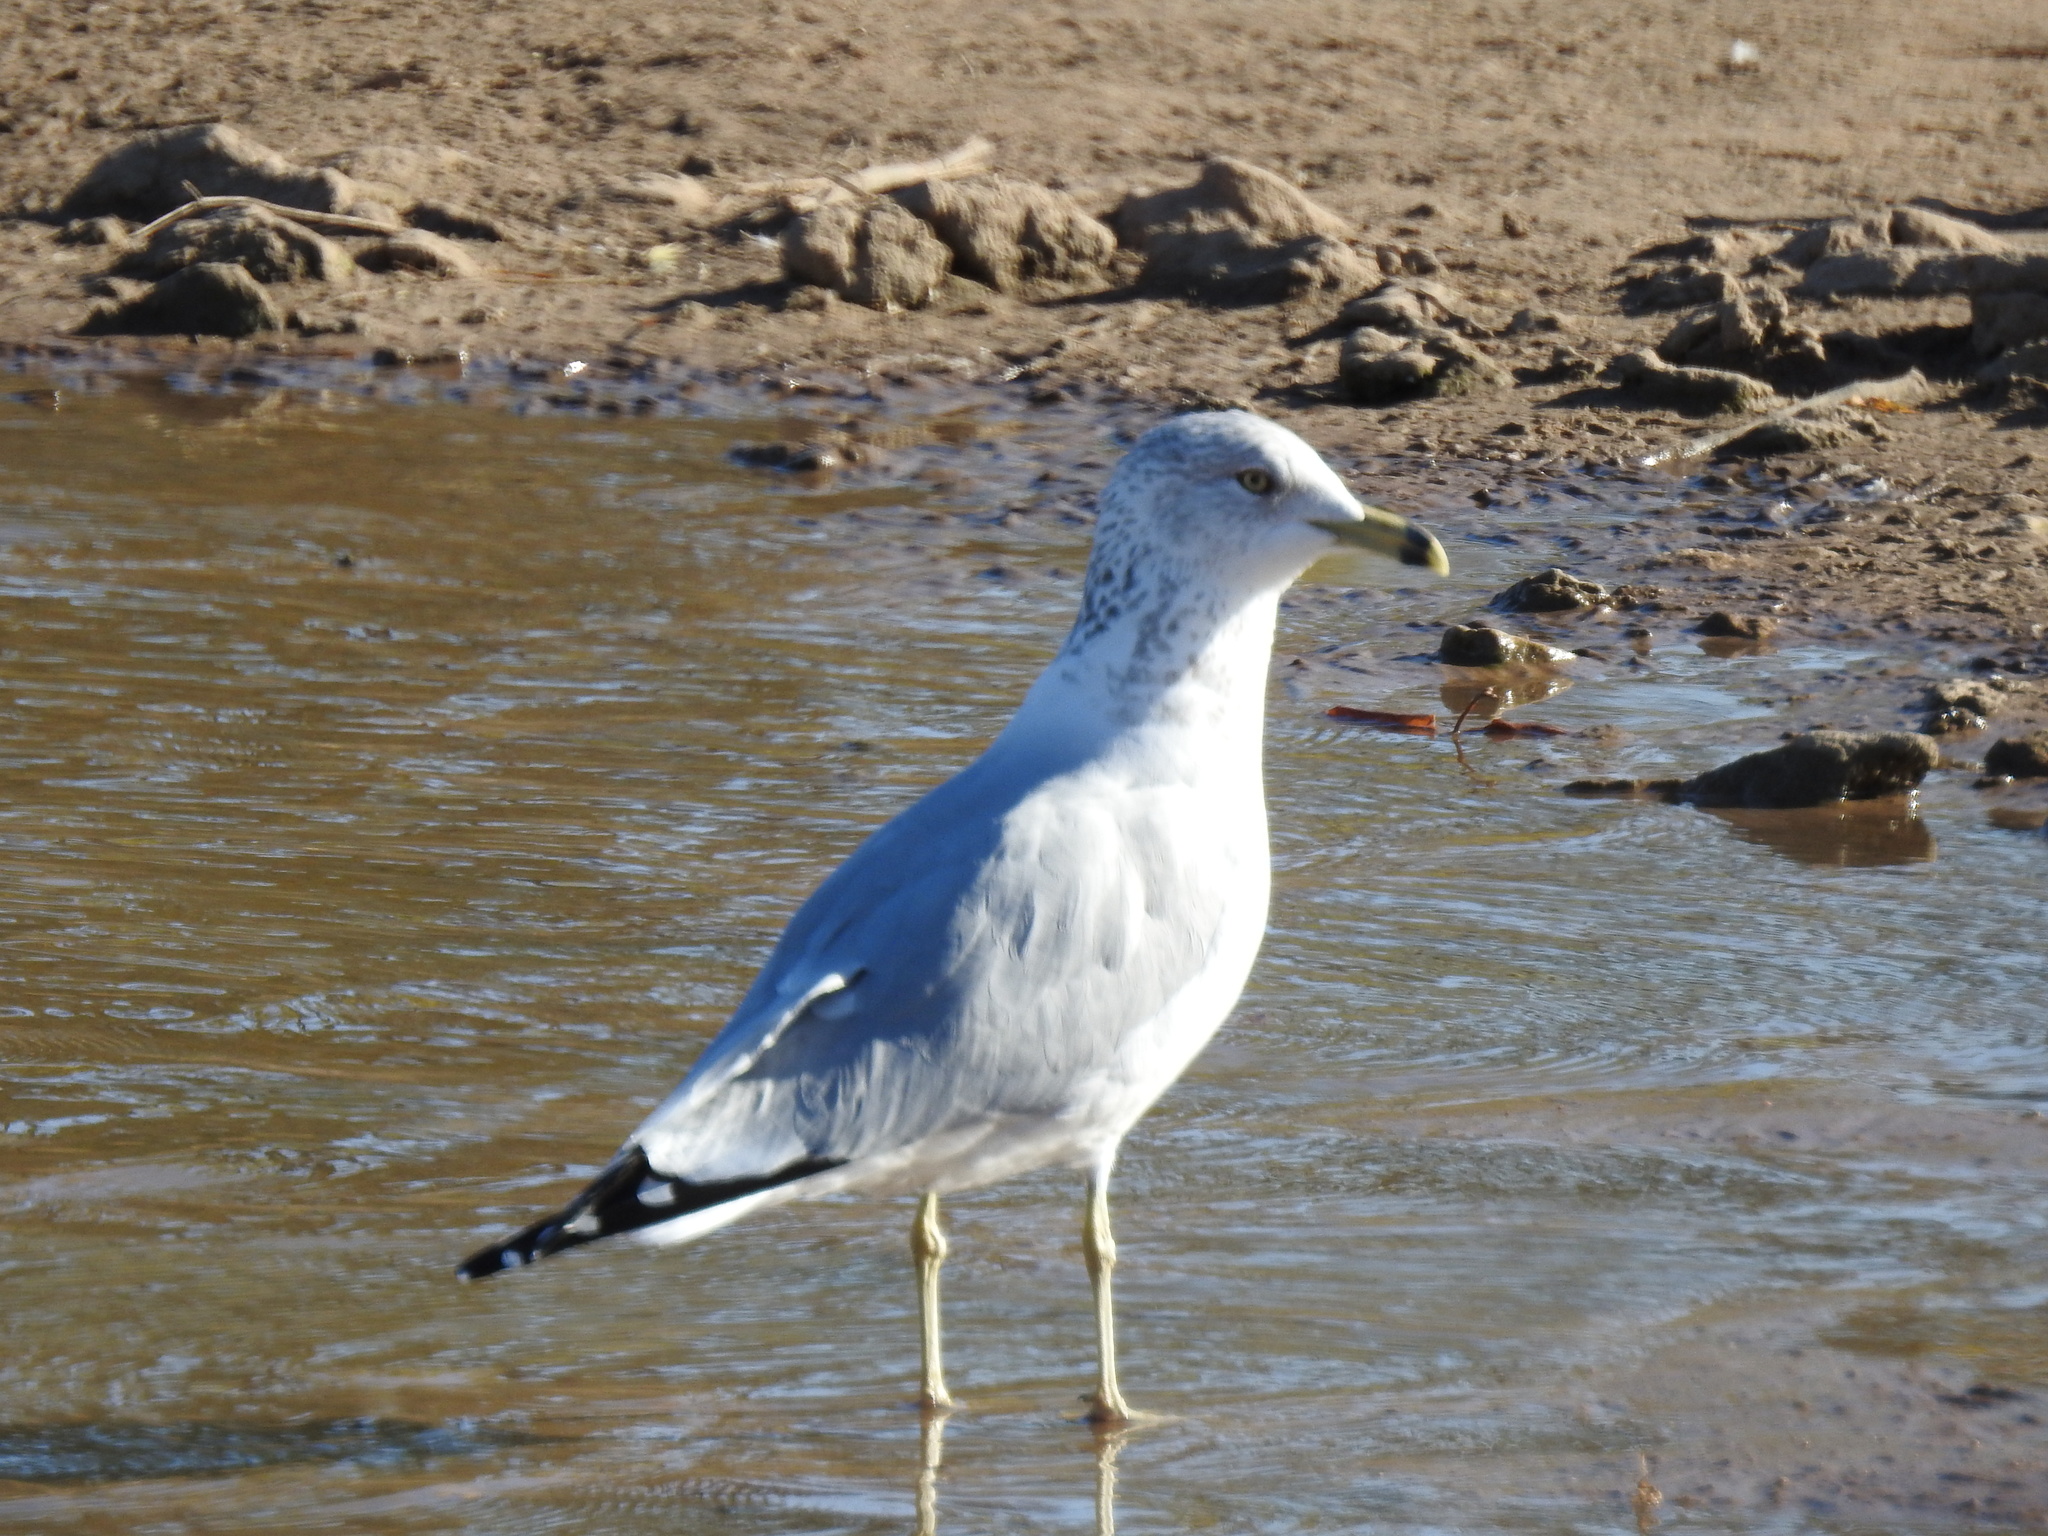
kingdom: Animalia
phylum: Chordata
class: Aves
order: Charadriiformes
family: Laridae
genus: Larus
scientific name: Larus delawarensis
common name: Ring-billed gull
